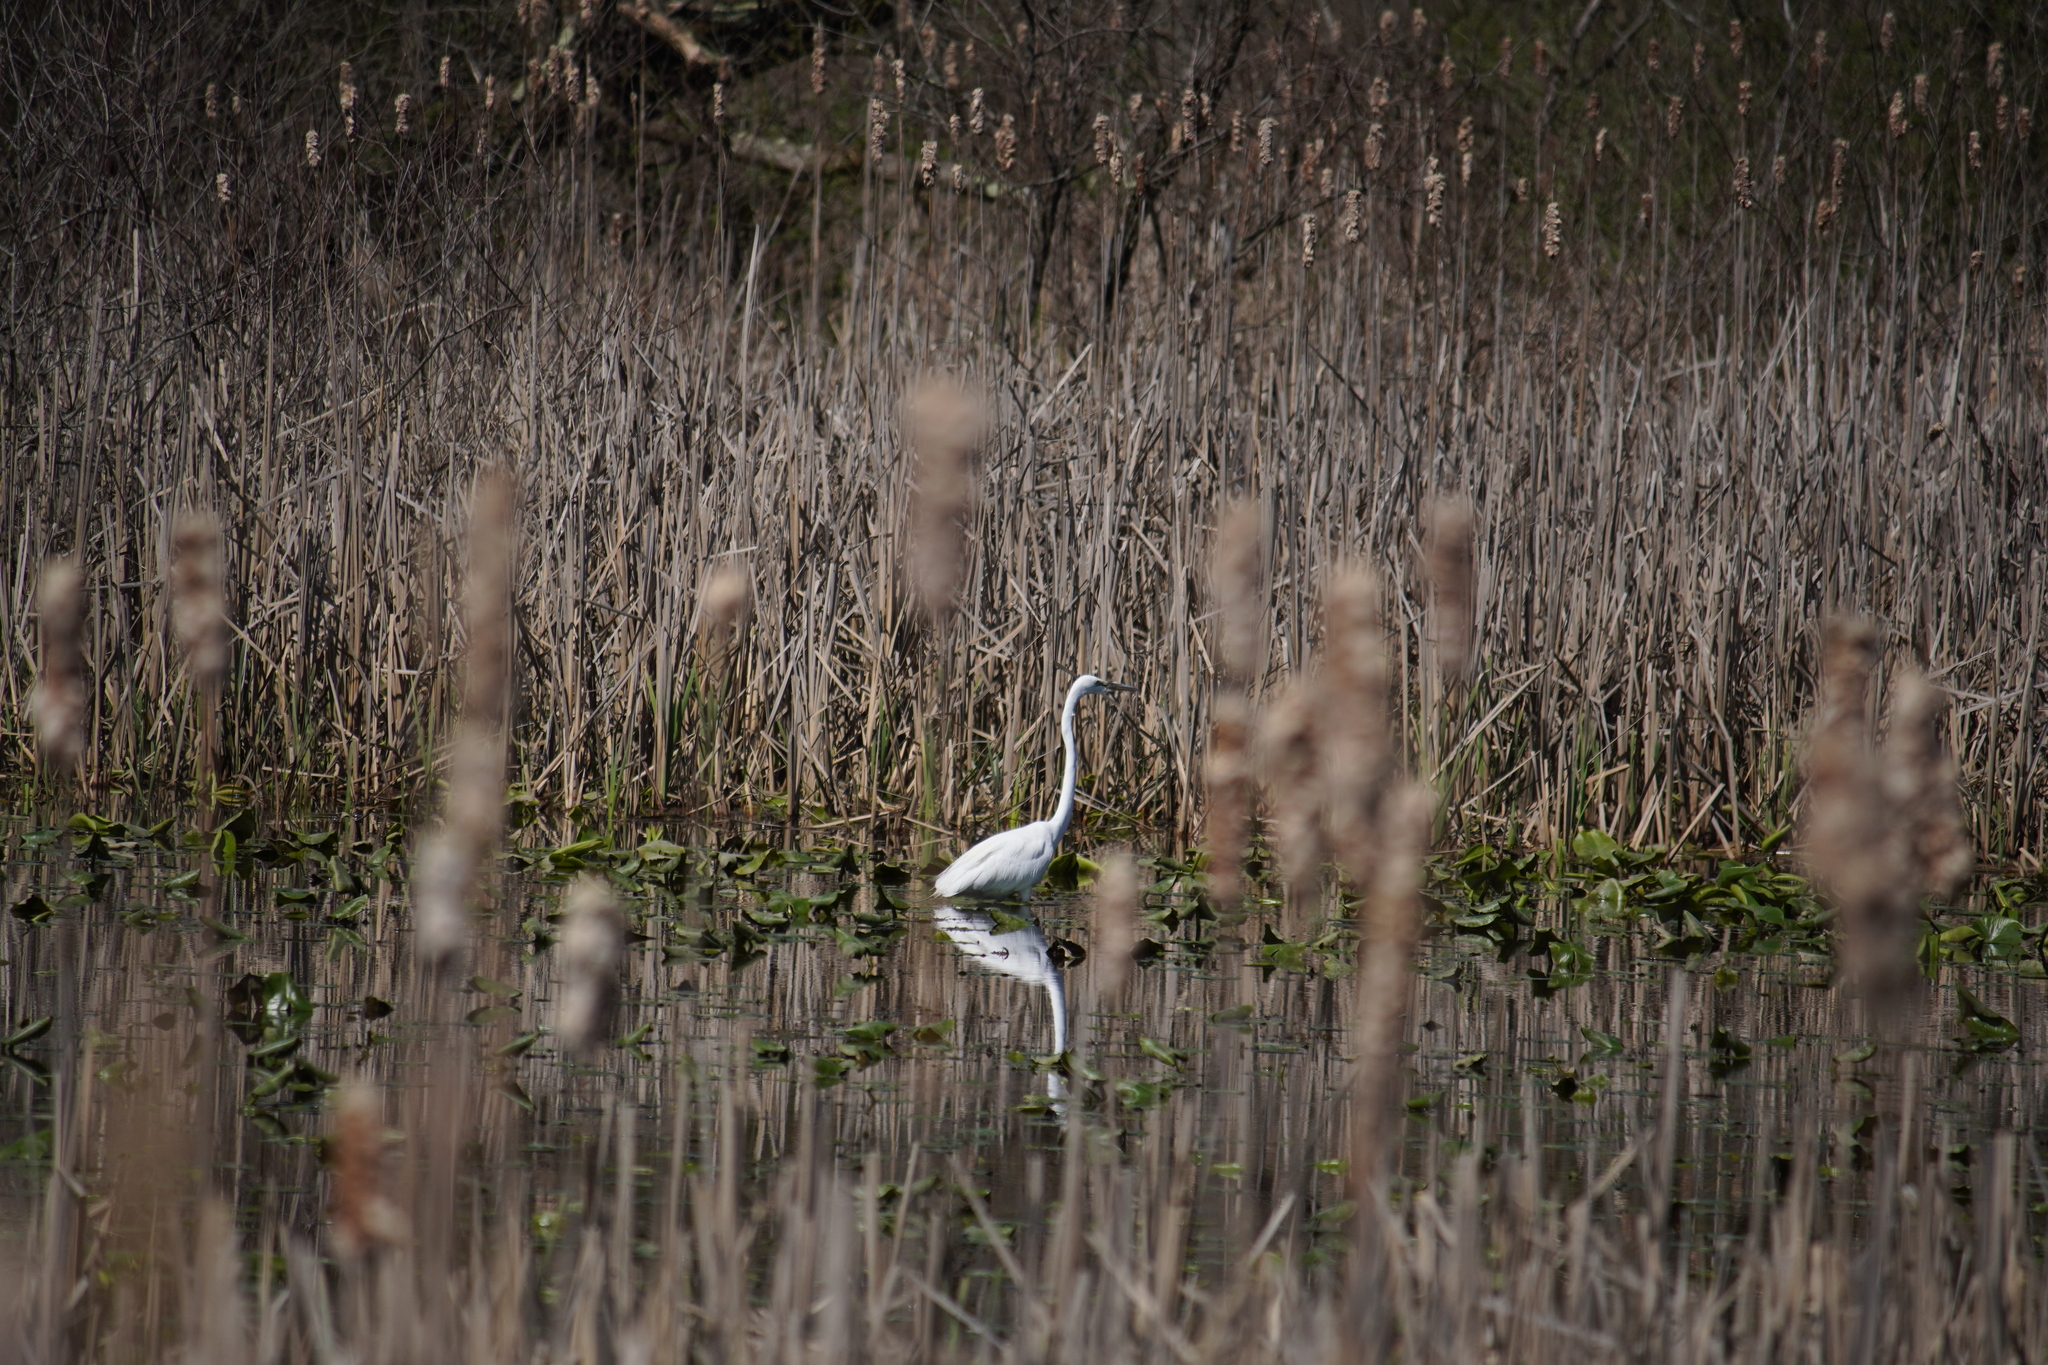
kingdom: Animalia
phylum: Chordata
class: Aves
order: Pelecaniformes
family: Ardeidae
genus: Ardea
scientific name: Ardea alba
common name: Great egret
